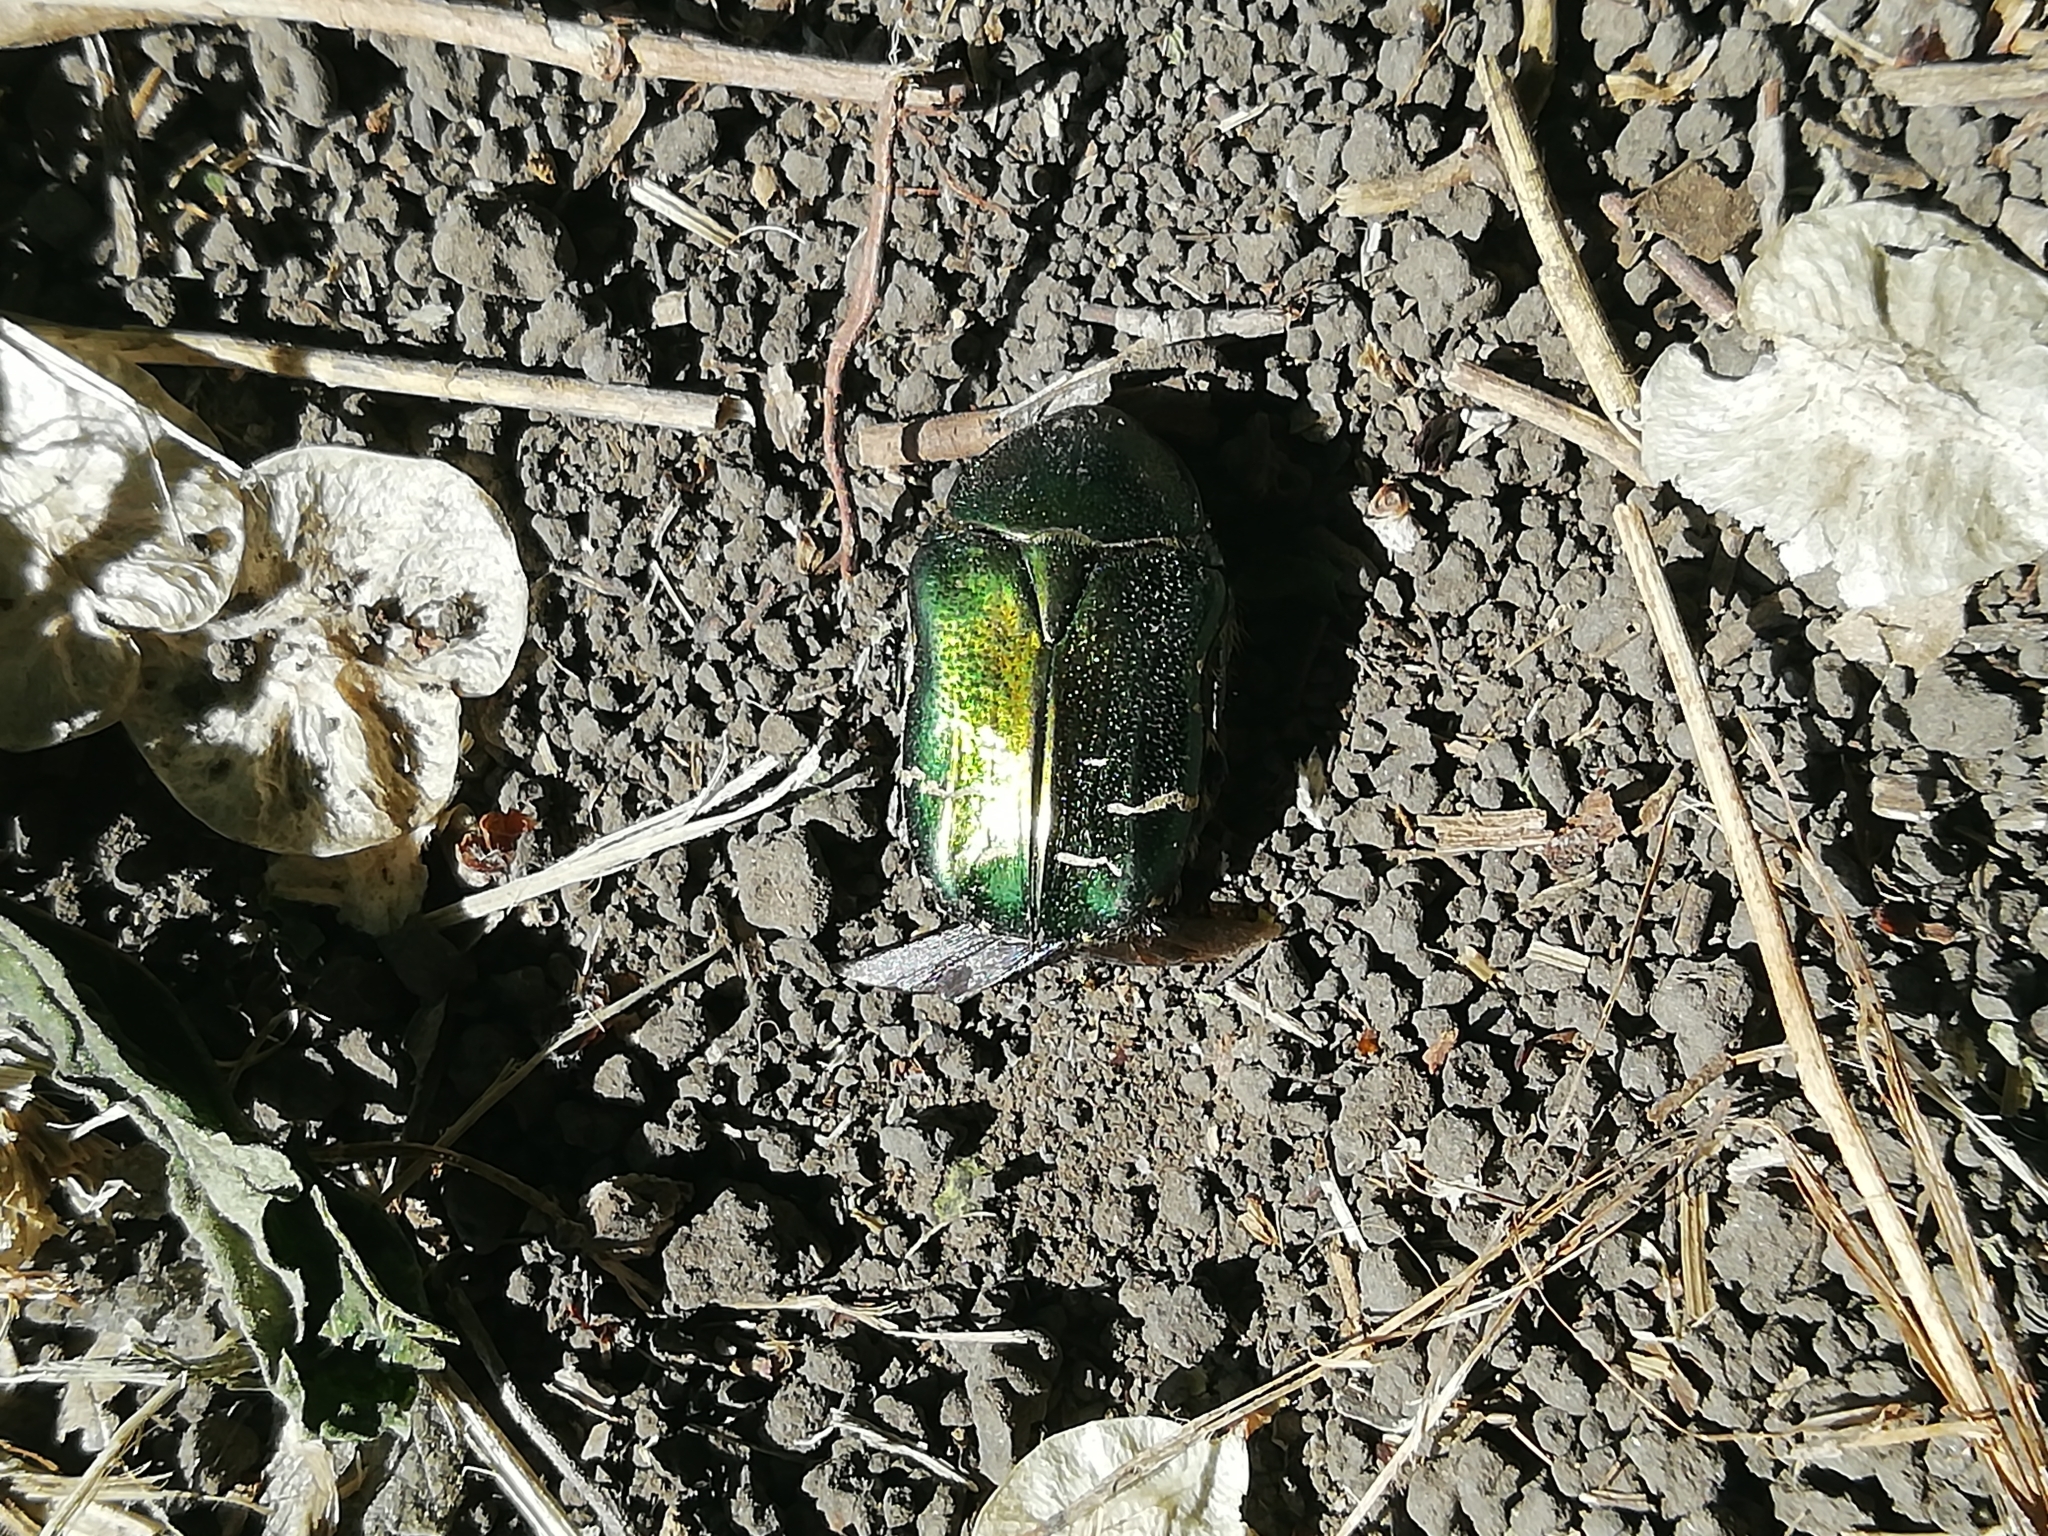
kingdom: Animalia
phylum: Arthropoda
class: Insecta
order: Coleoptera
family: Scarabaeidae
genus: Cetonia
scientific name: Cetonia aurata
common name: Rose chafer
